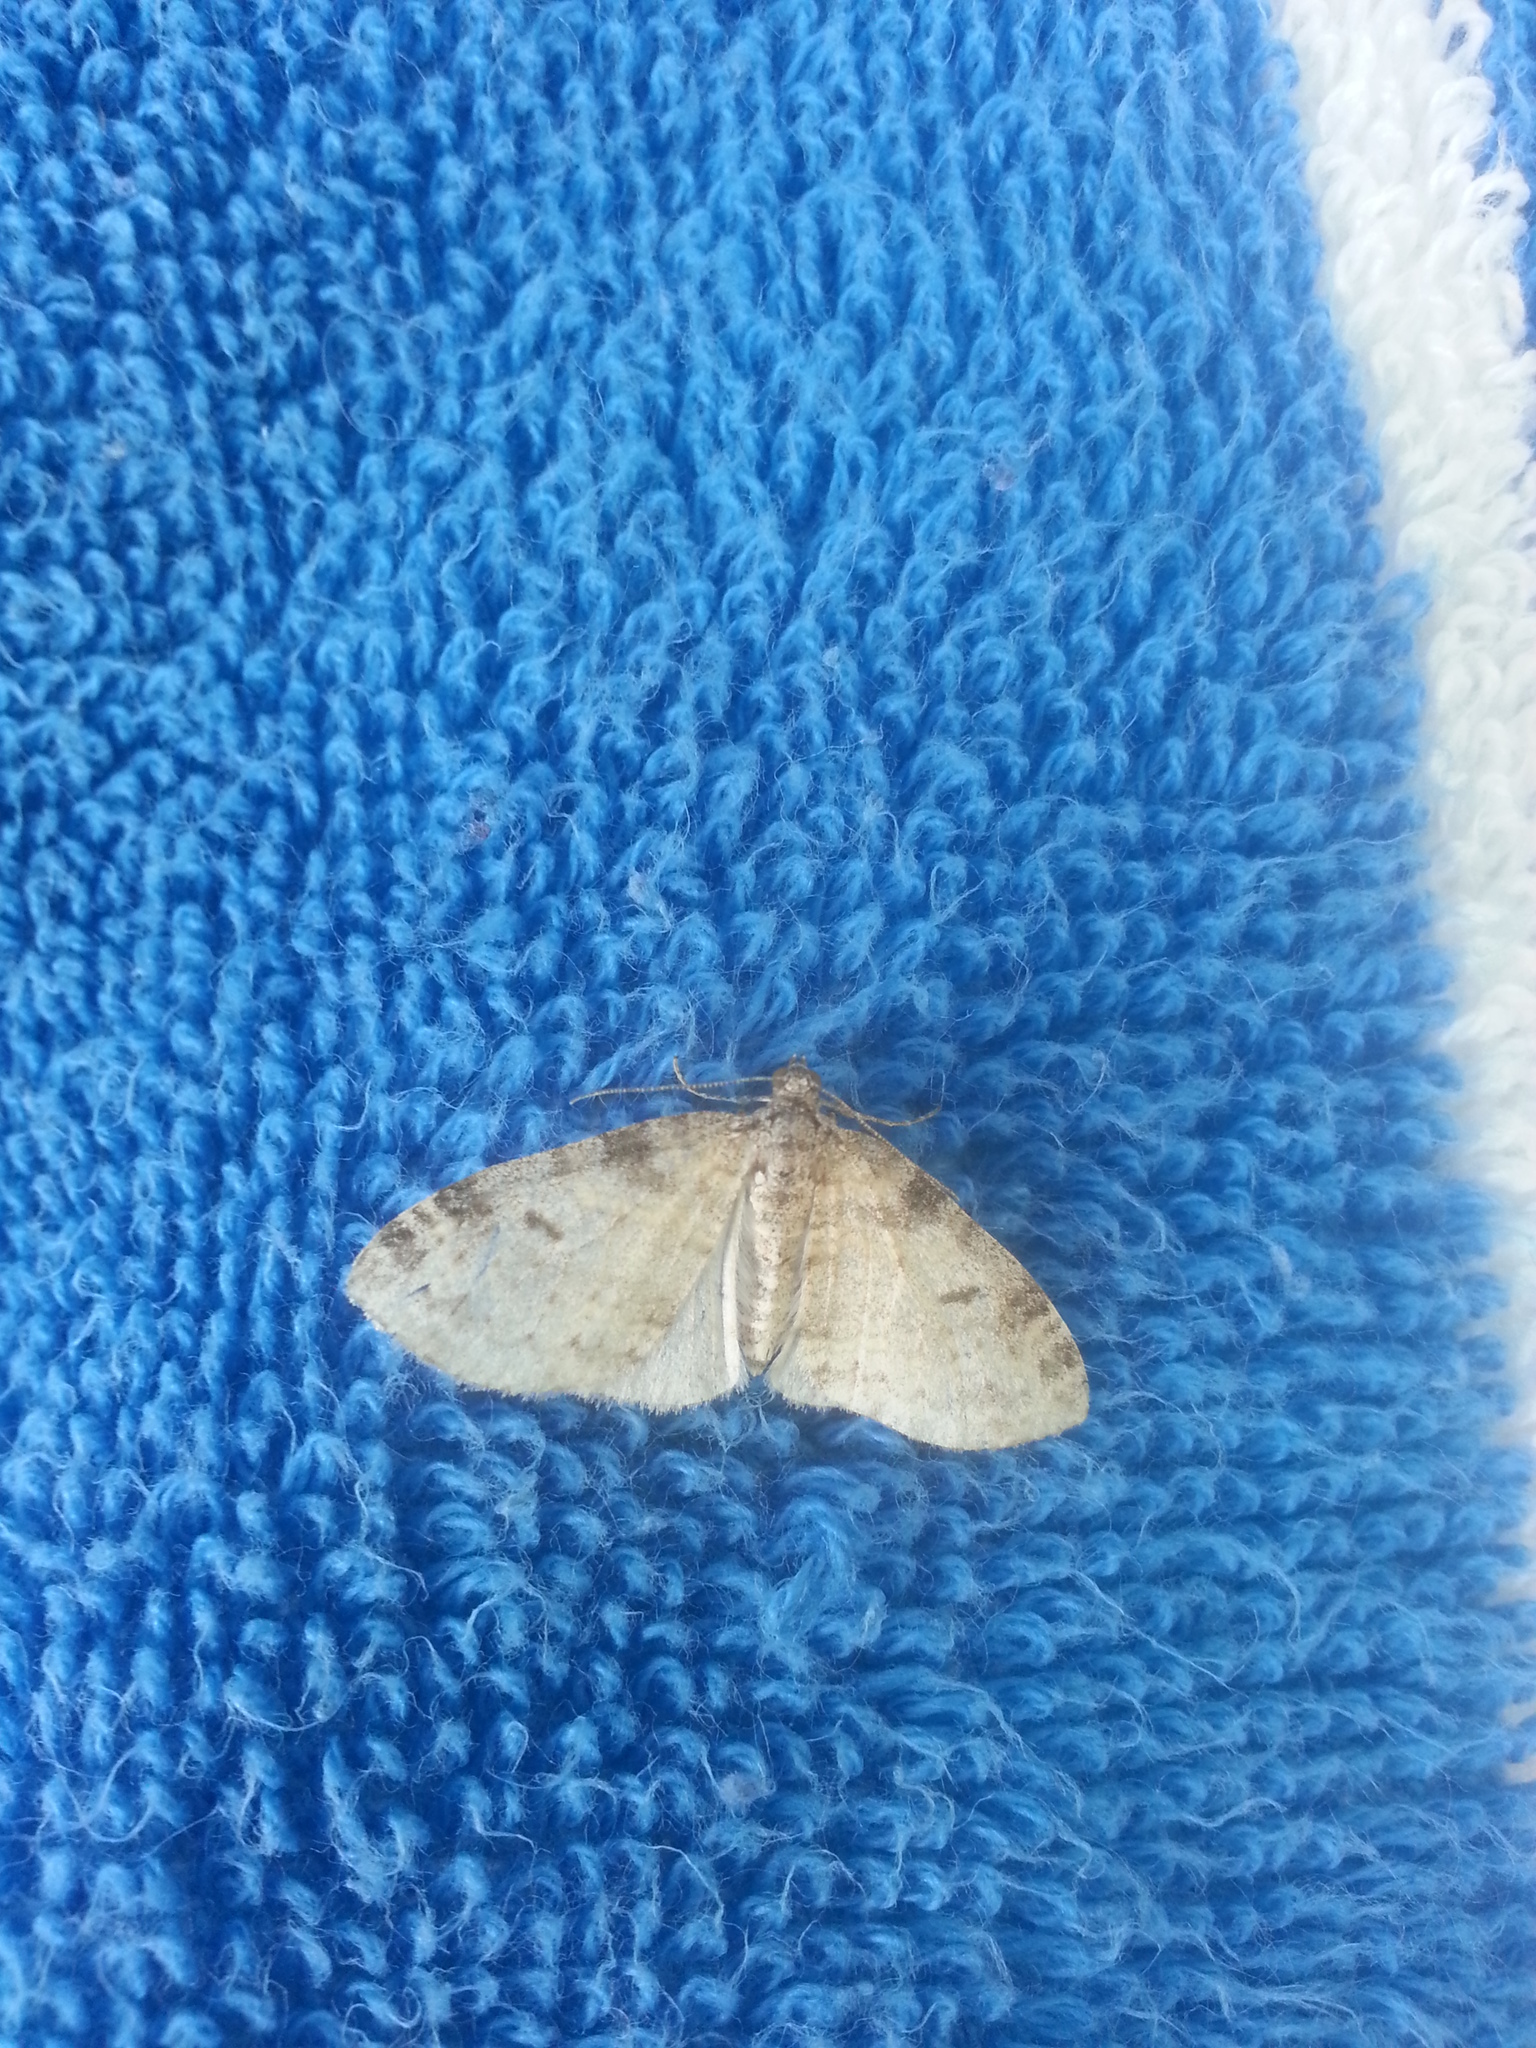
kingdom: Animalia
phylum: Arthropoda
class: Insecta
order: Lepidoptera
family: Geometridae
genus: Lobophora
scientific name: Lobophora nivigerata
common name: Powdered bigwing
